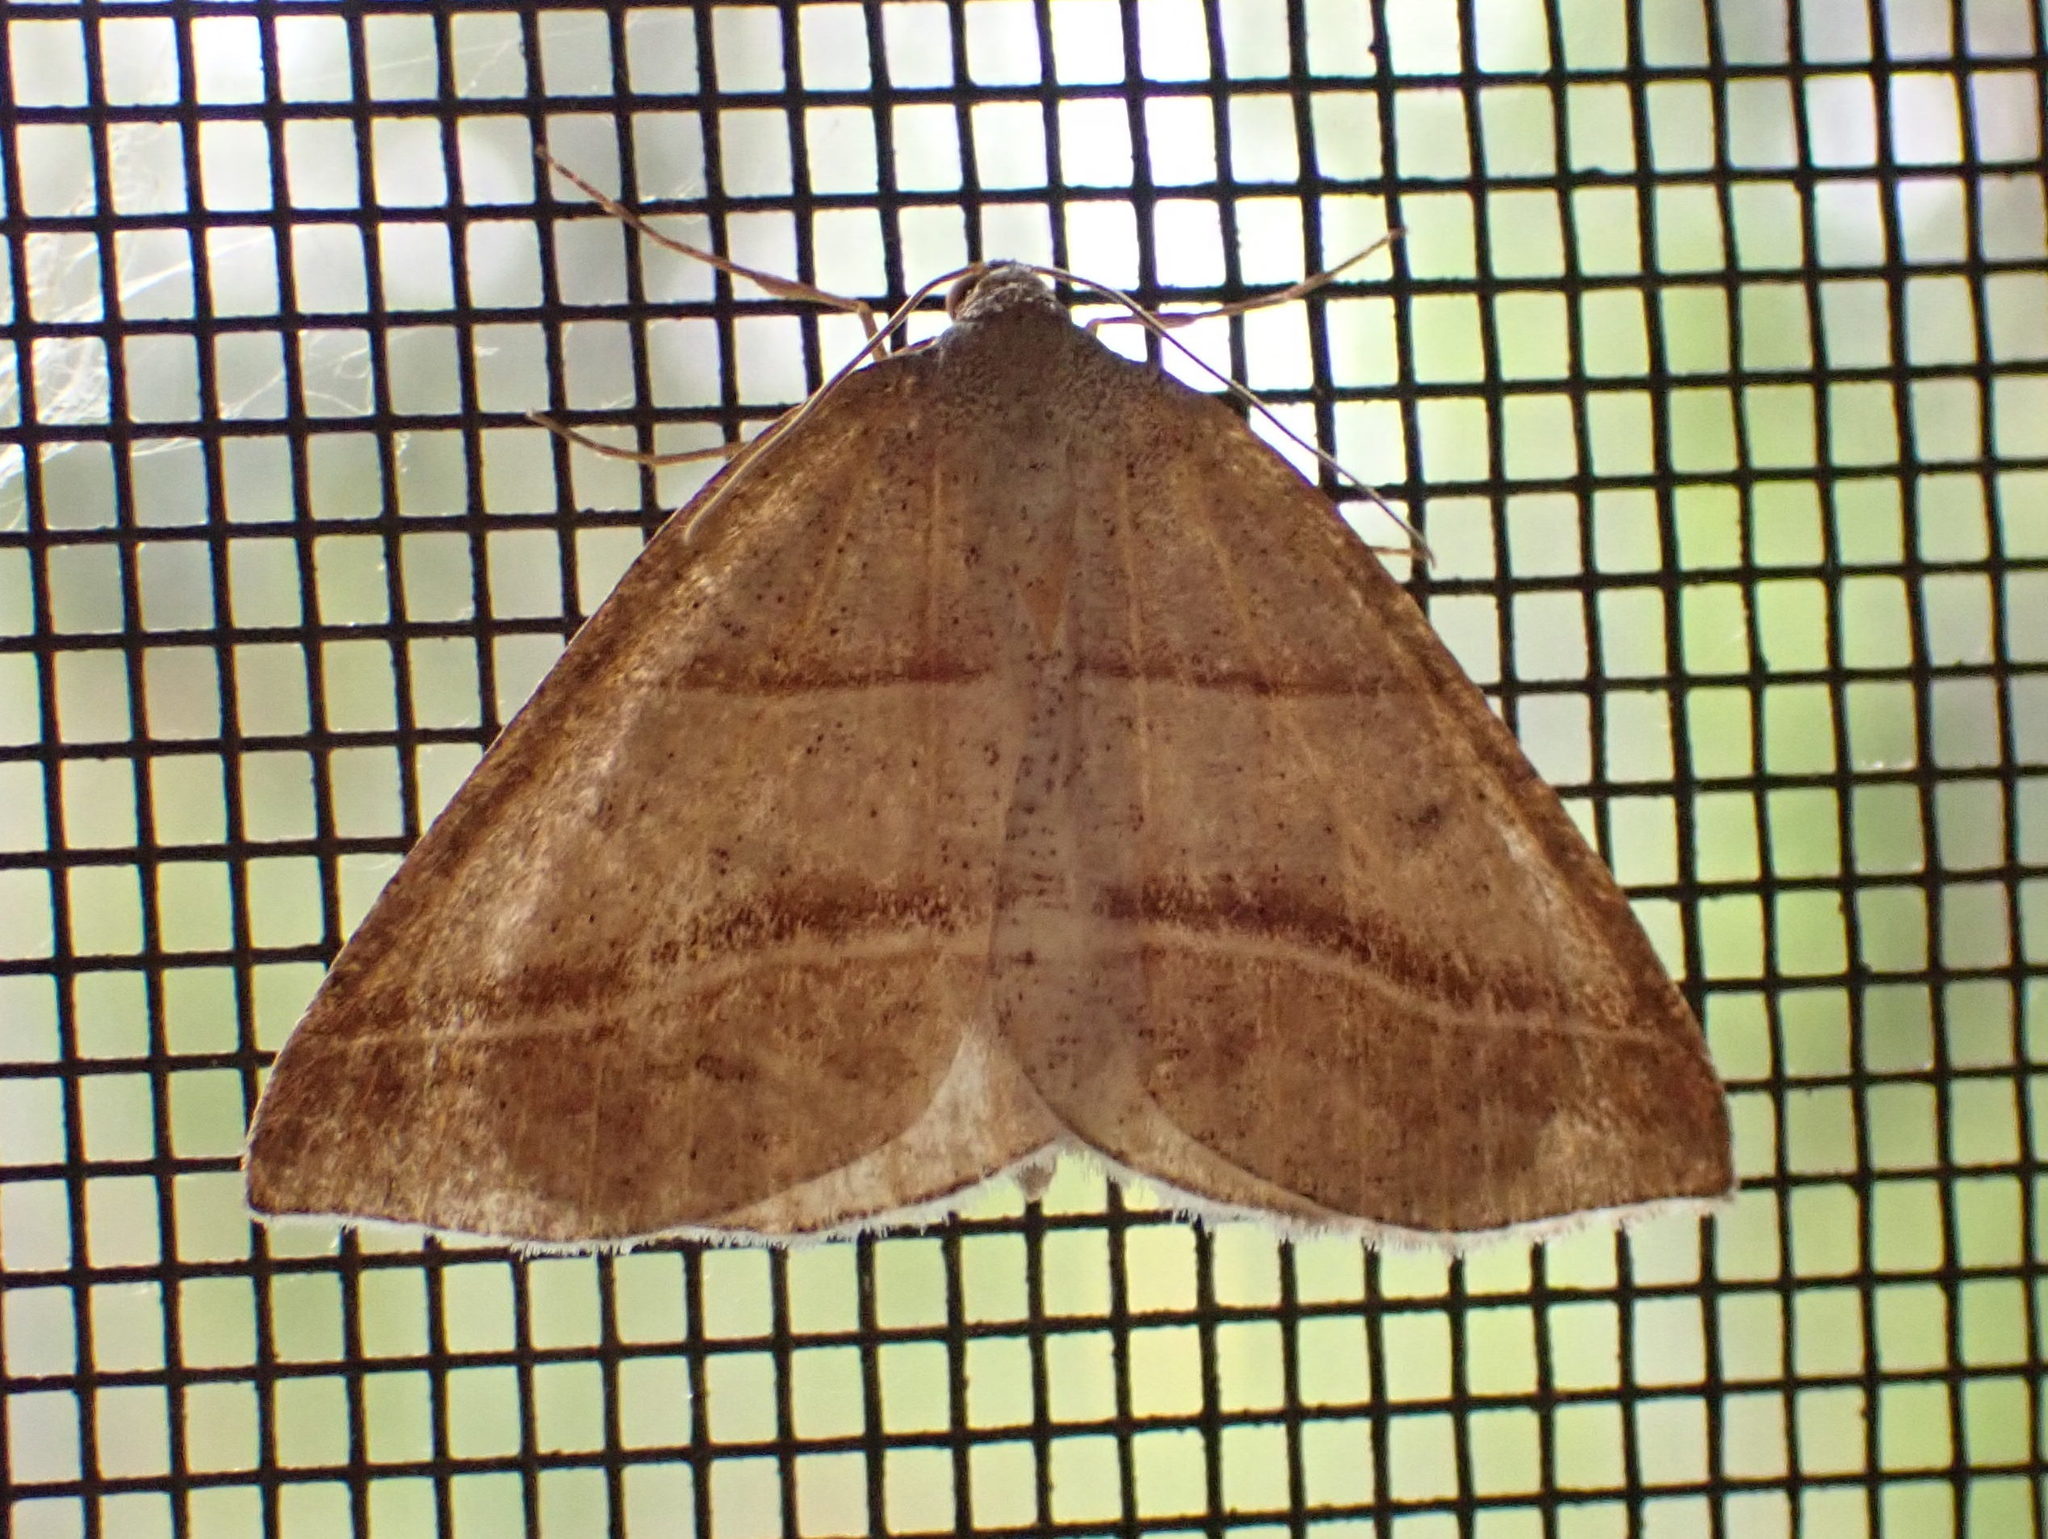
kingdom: Animalia
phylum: Arthropoda
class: Insecta
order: Lepidoptera
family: Pterophoridae
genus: Pterophorus
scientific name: Pterophorus Petrophora subaequaria
